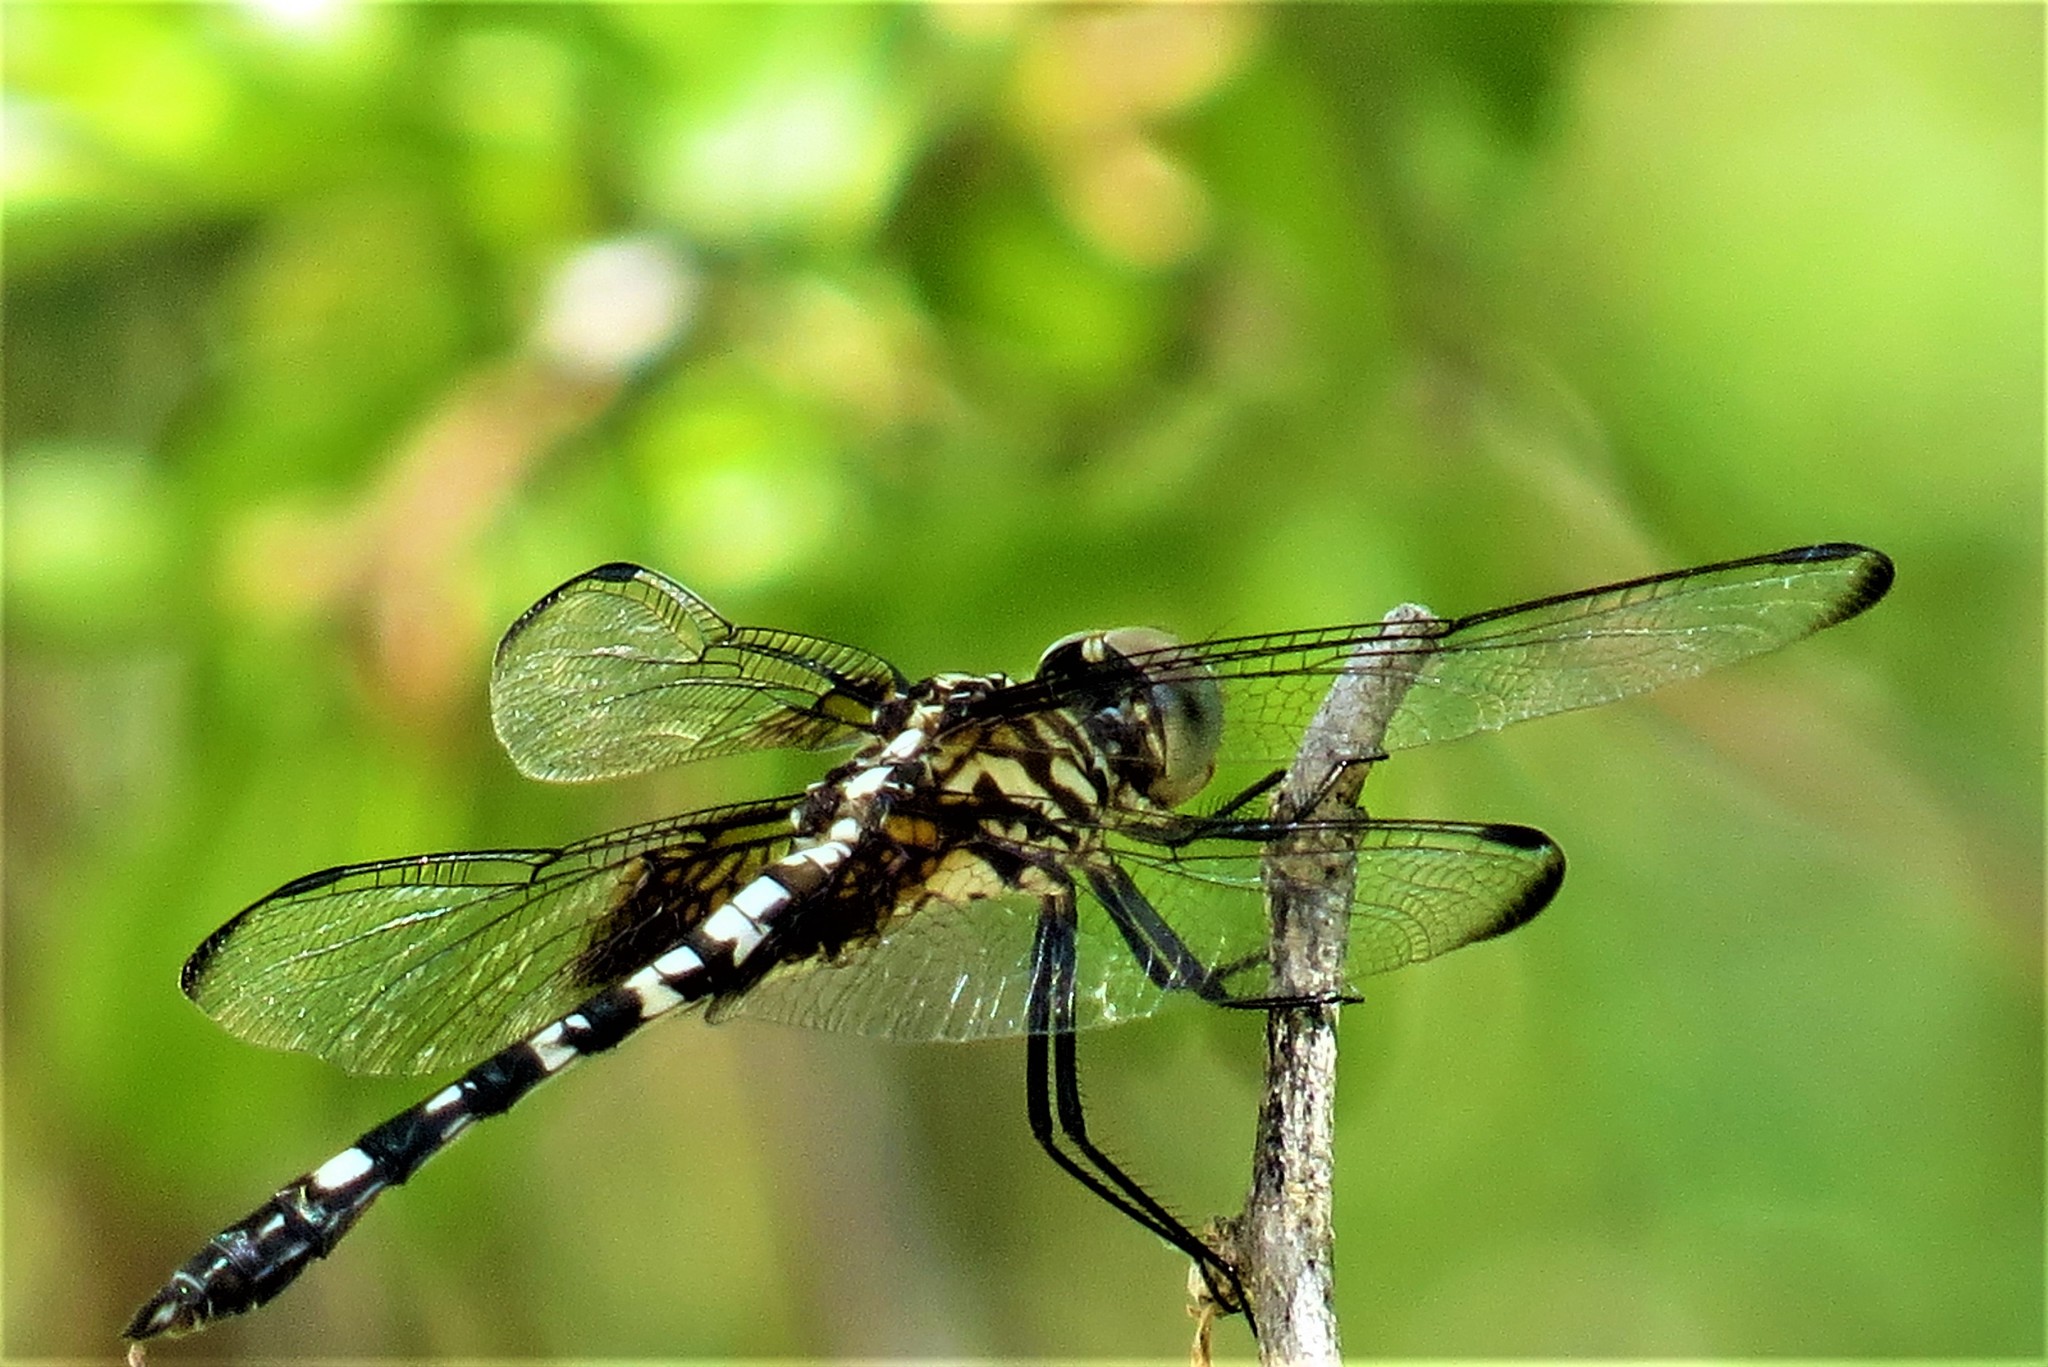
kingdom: Animalia
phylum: Arthropoda
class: Insecta
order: Odonata
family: Libellulidae
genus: Dythemis
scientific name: Dythemis fugax
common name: Checkered setwing
